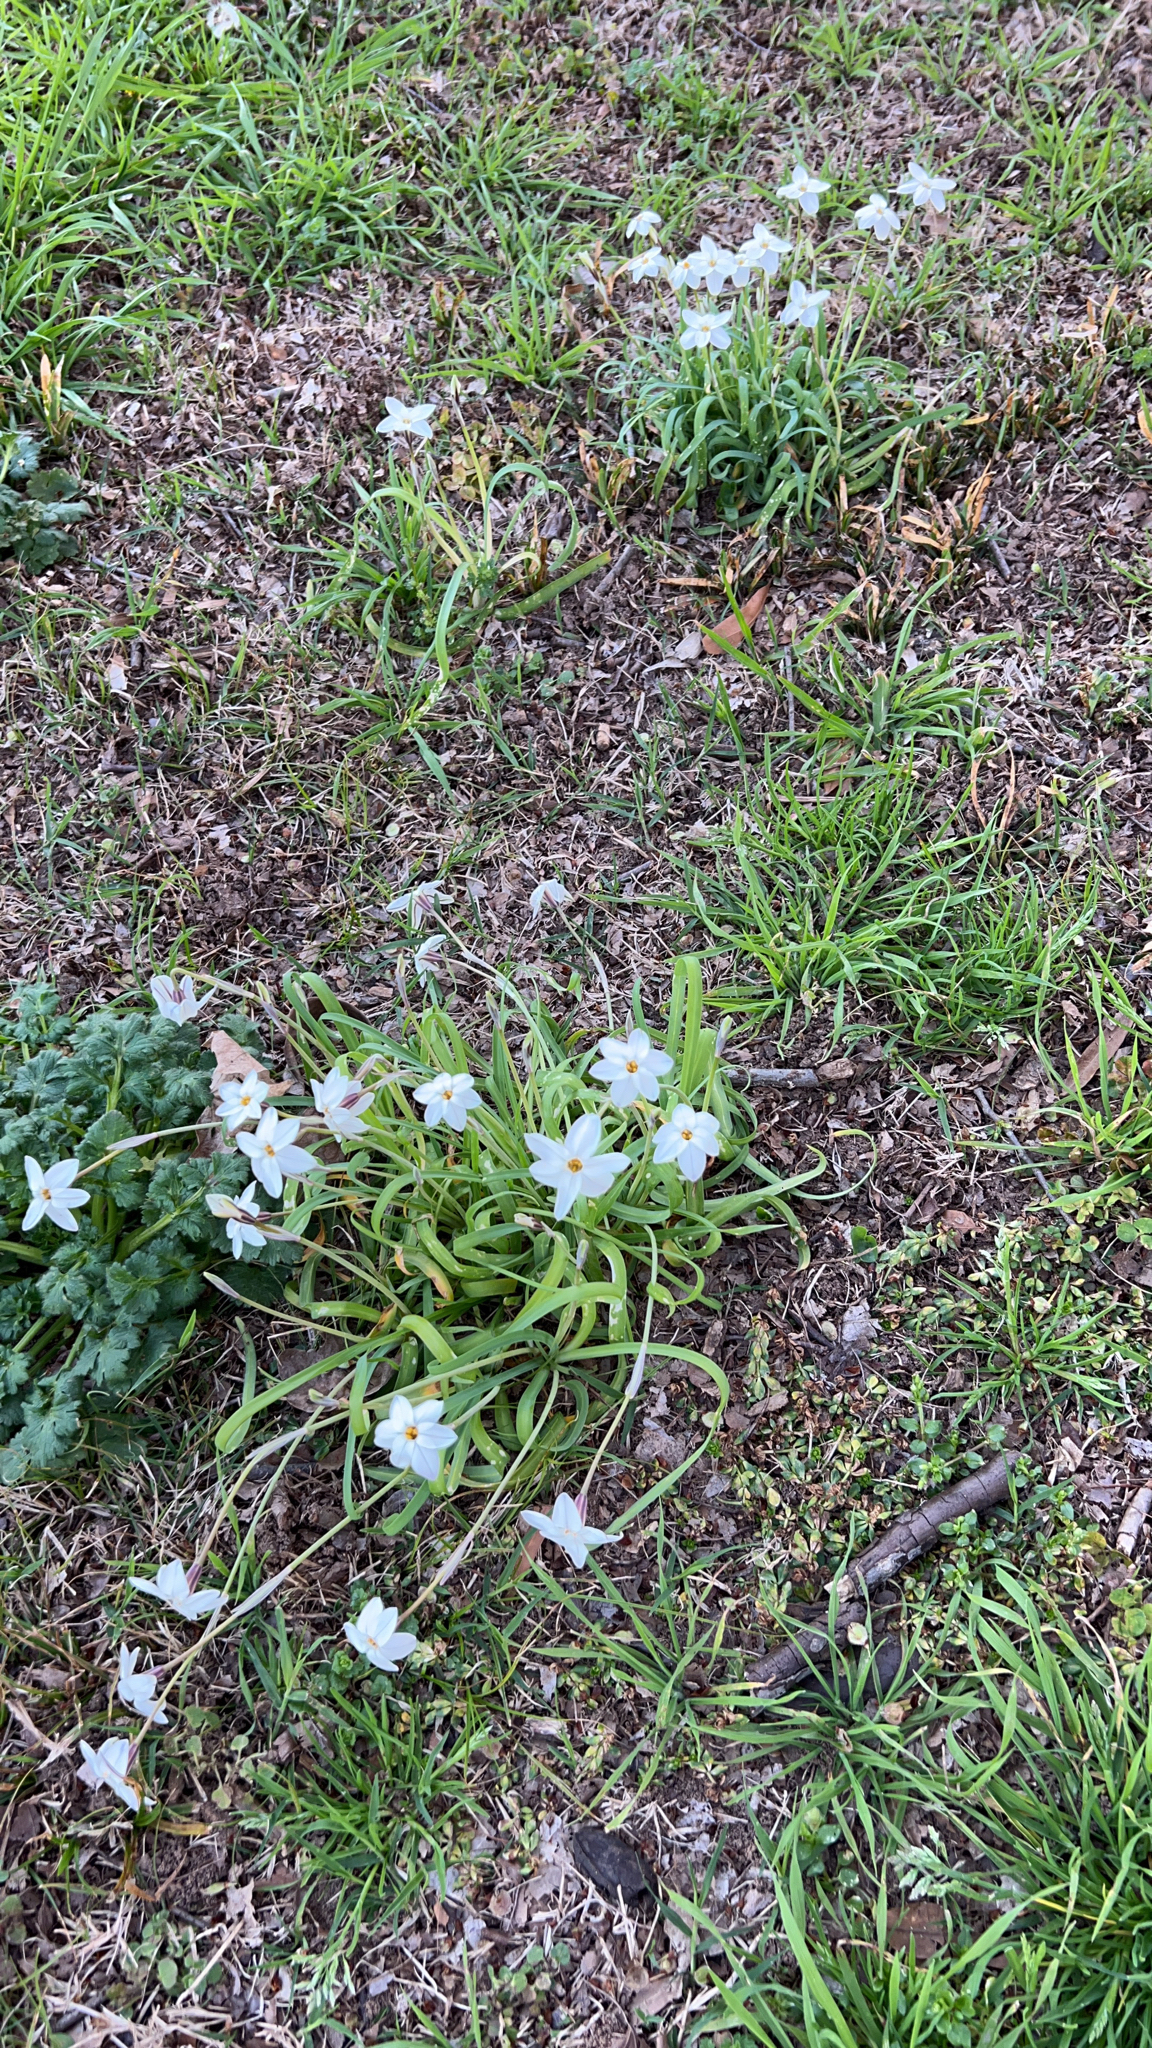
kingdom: Plantae
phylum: Tracheophyta
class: Liliopsida
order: Asparagales
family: Amaryllidaceae
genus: Ipheion
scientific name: Ipheion uniflorum
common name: Spring starflower
